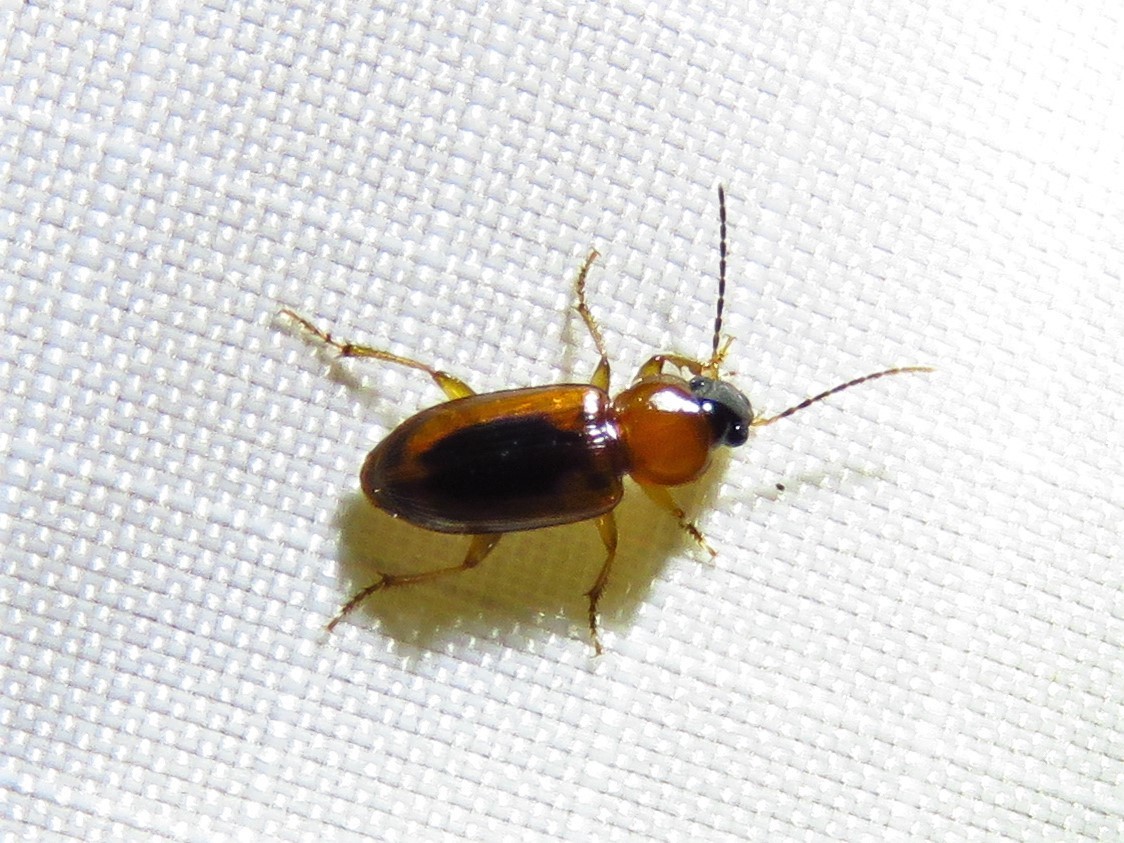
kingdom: Animalia
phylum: Arthropoda
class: Insecta
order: Coleoptera
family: Carabidae
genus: Stenolophus
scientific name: Stenolophus dissimilis
